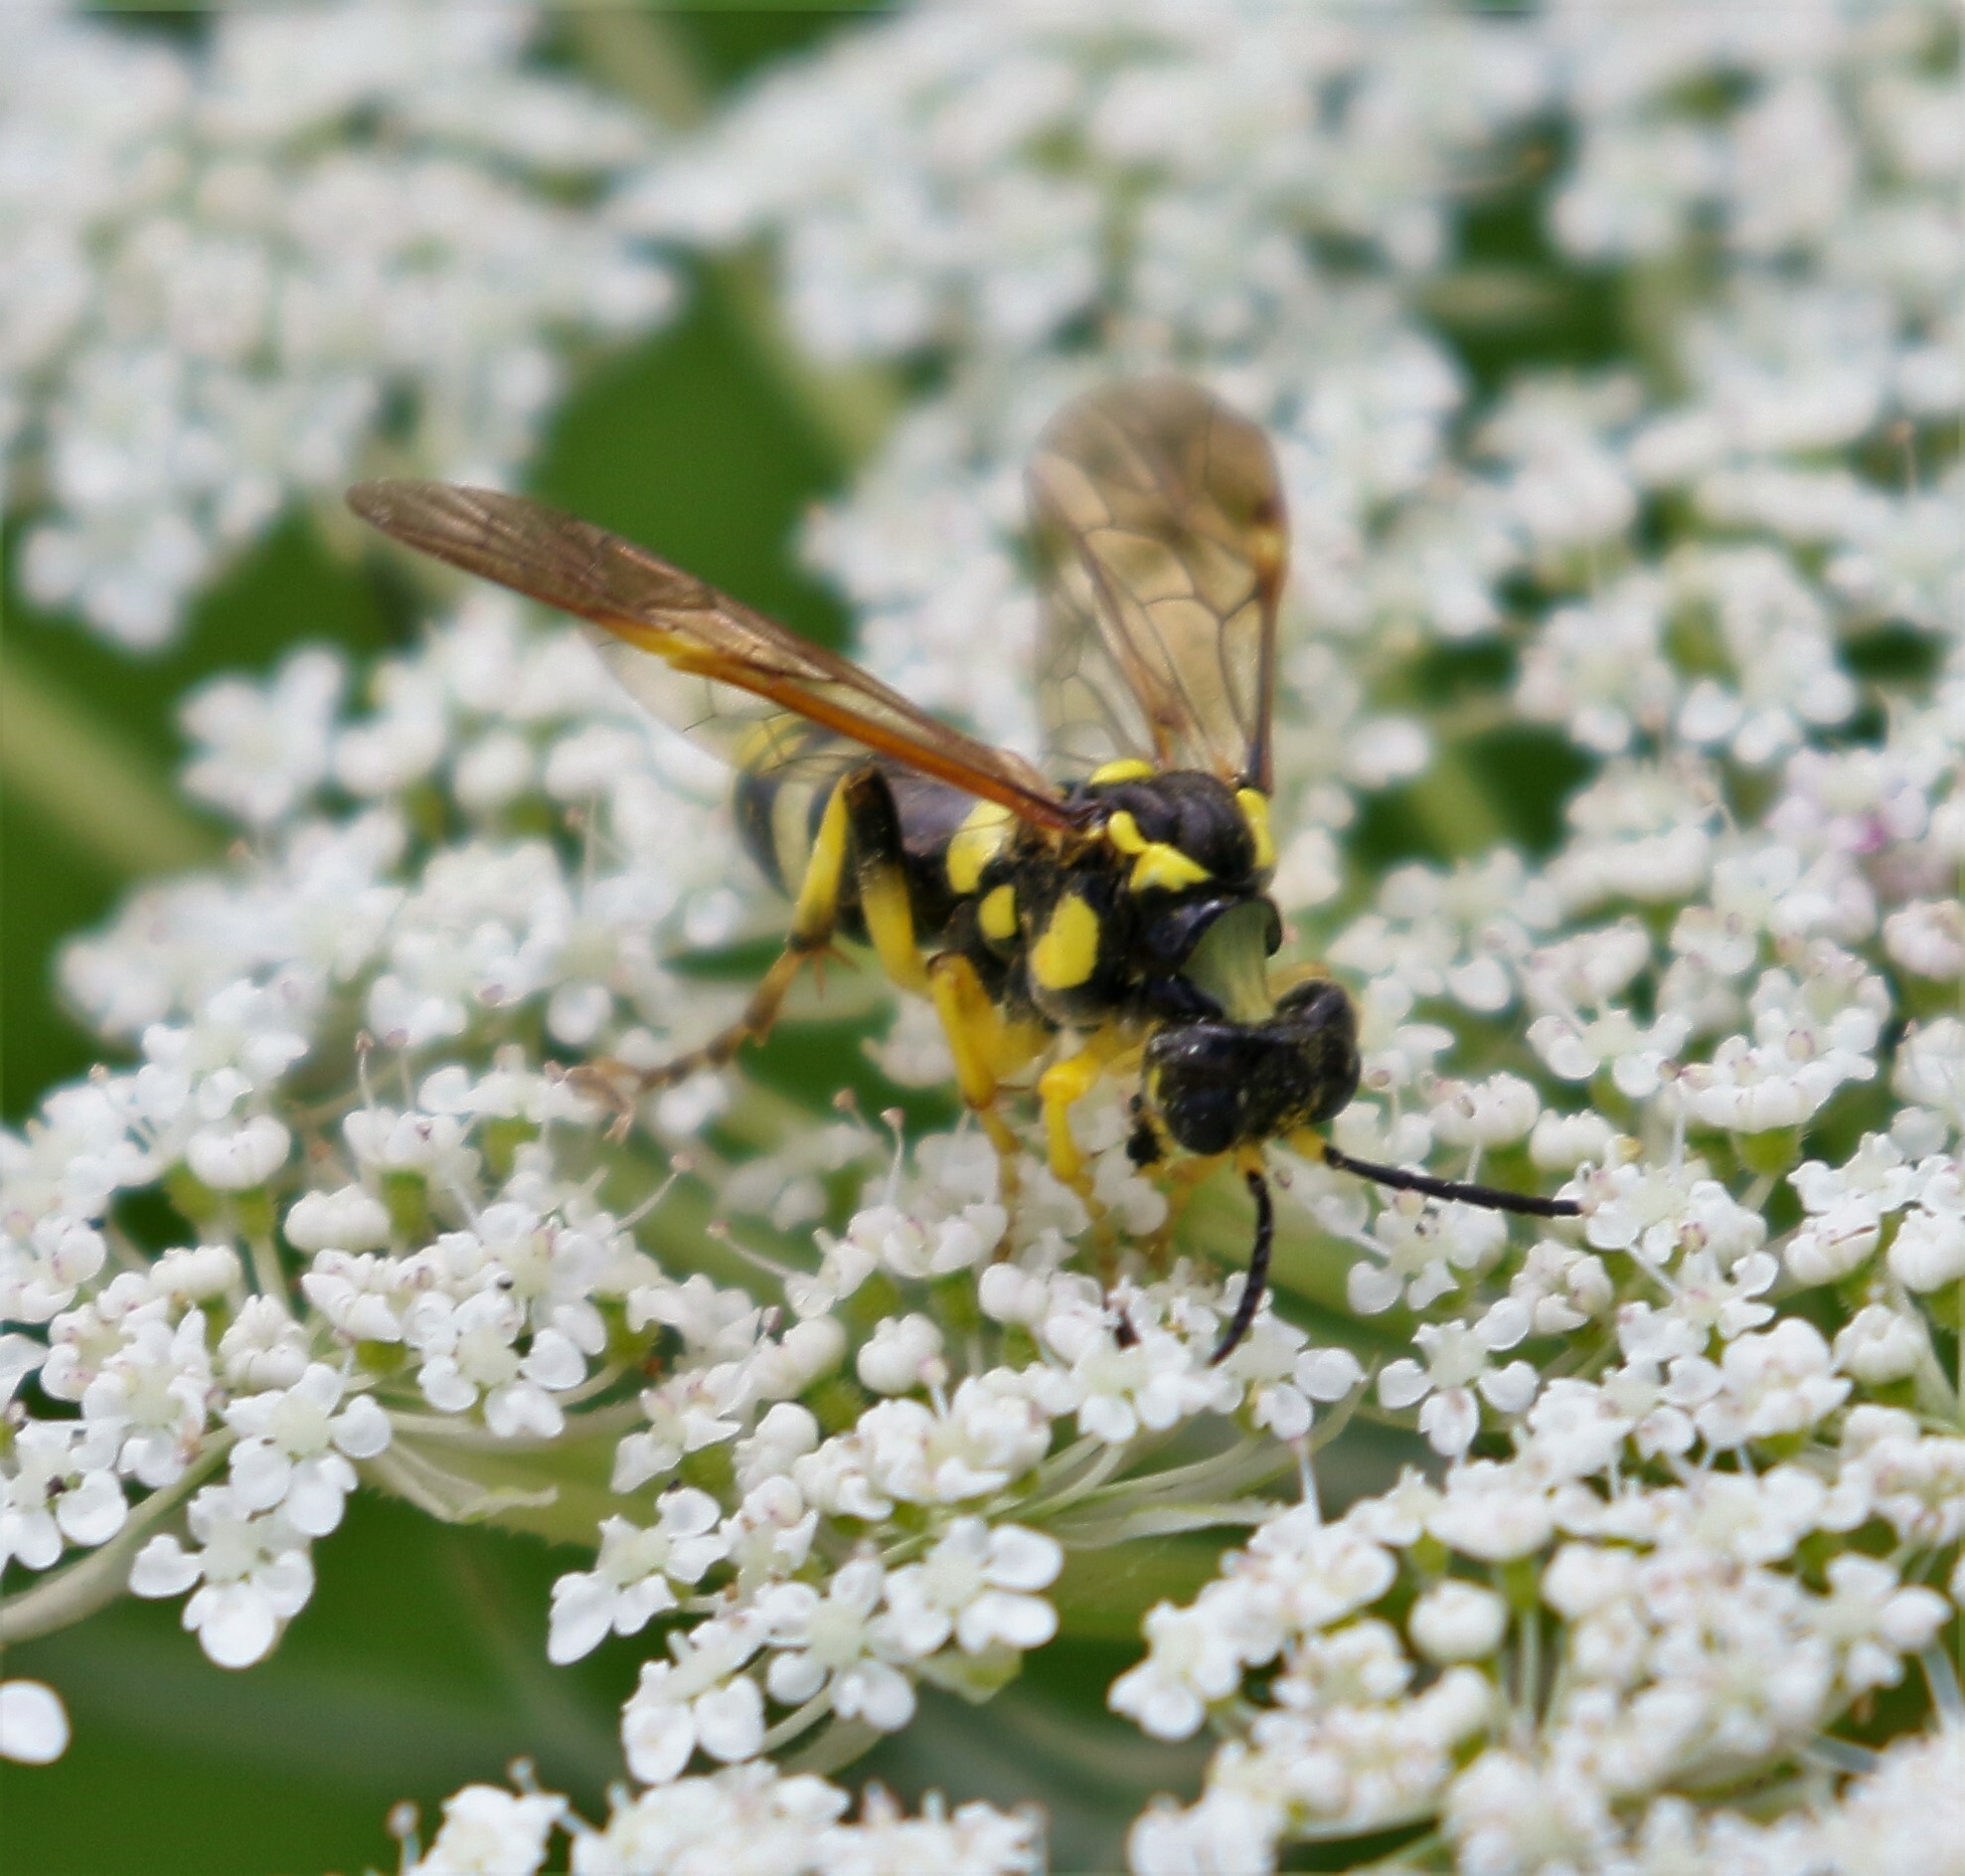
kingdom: Animalia
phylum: Arthropoda
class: Insecta
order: Hymenoptera
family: Tenthredinidae
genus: Tenthredo
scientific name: Tenthredo
